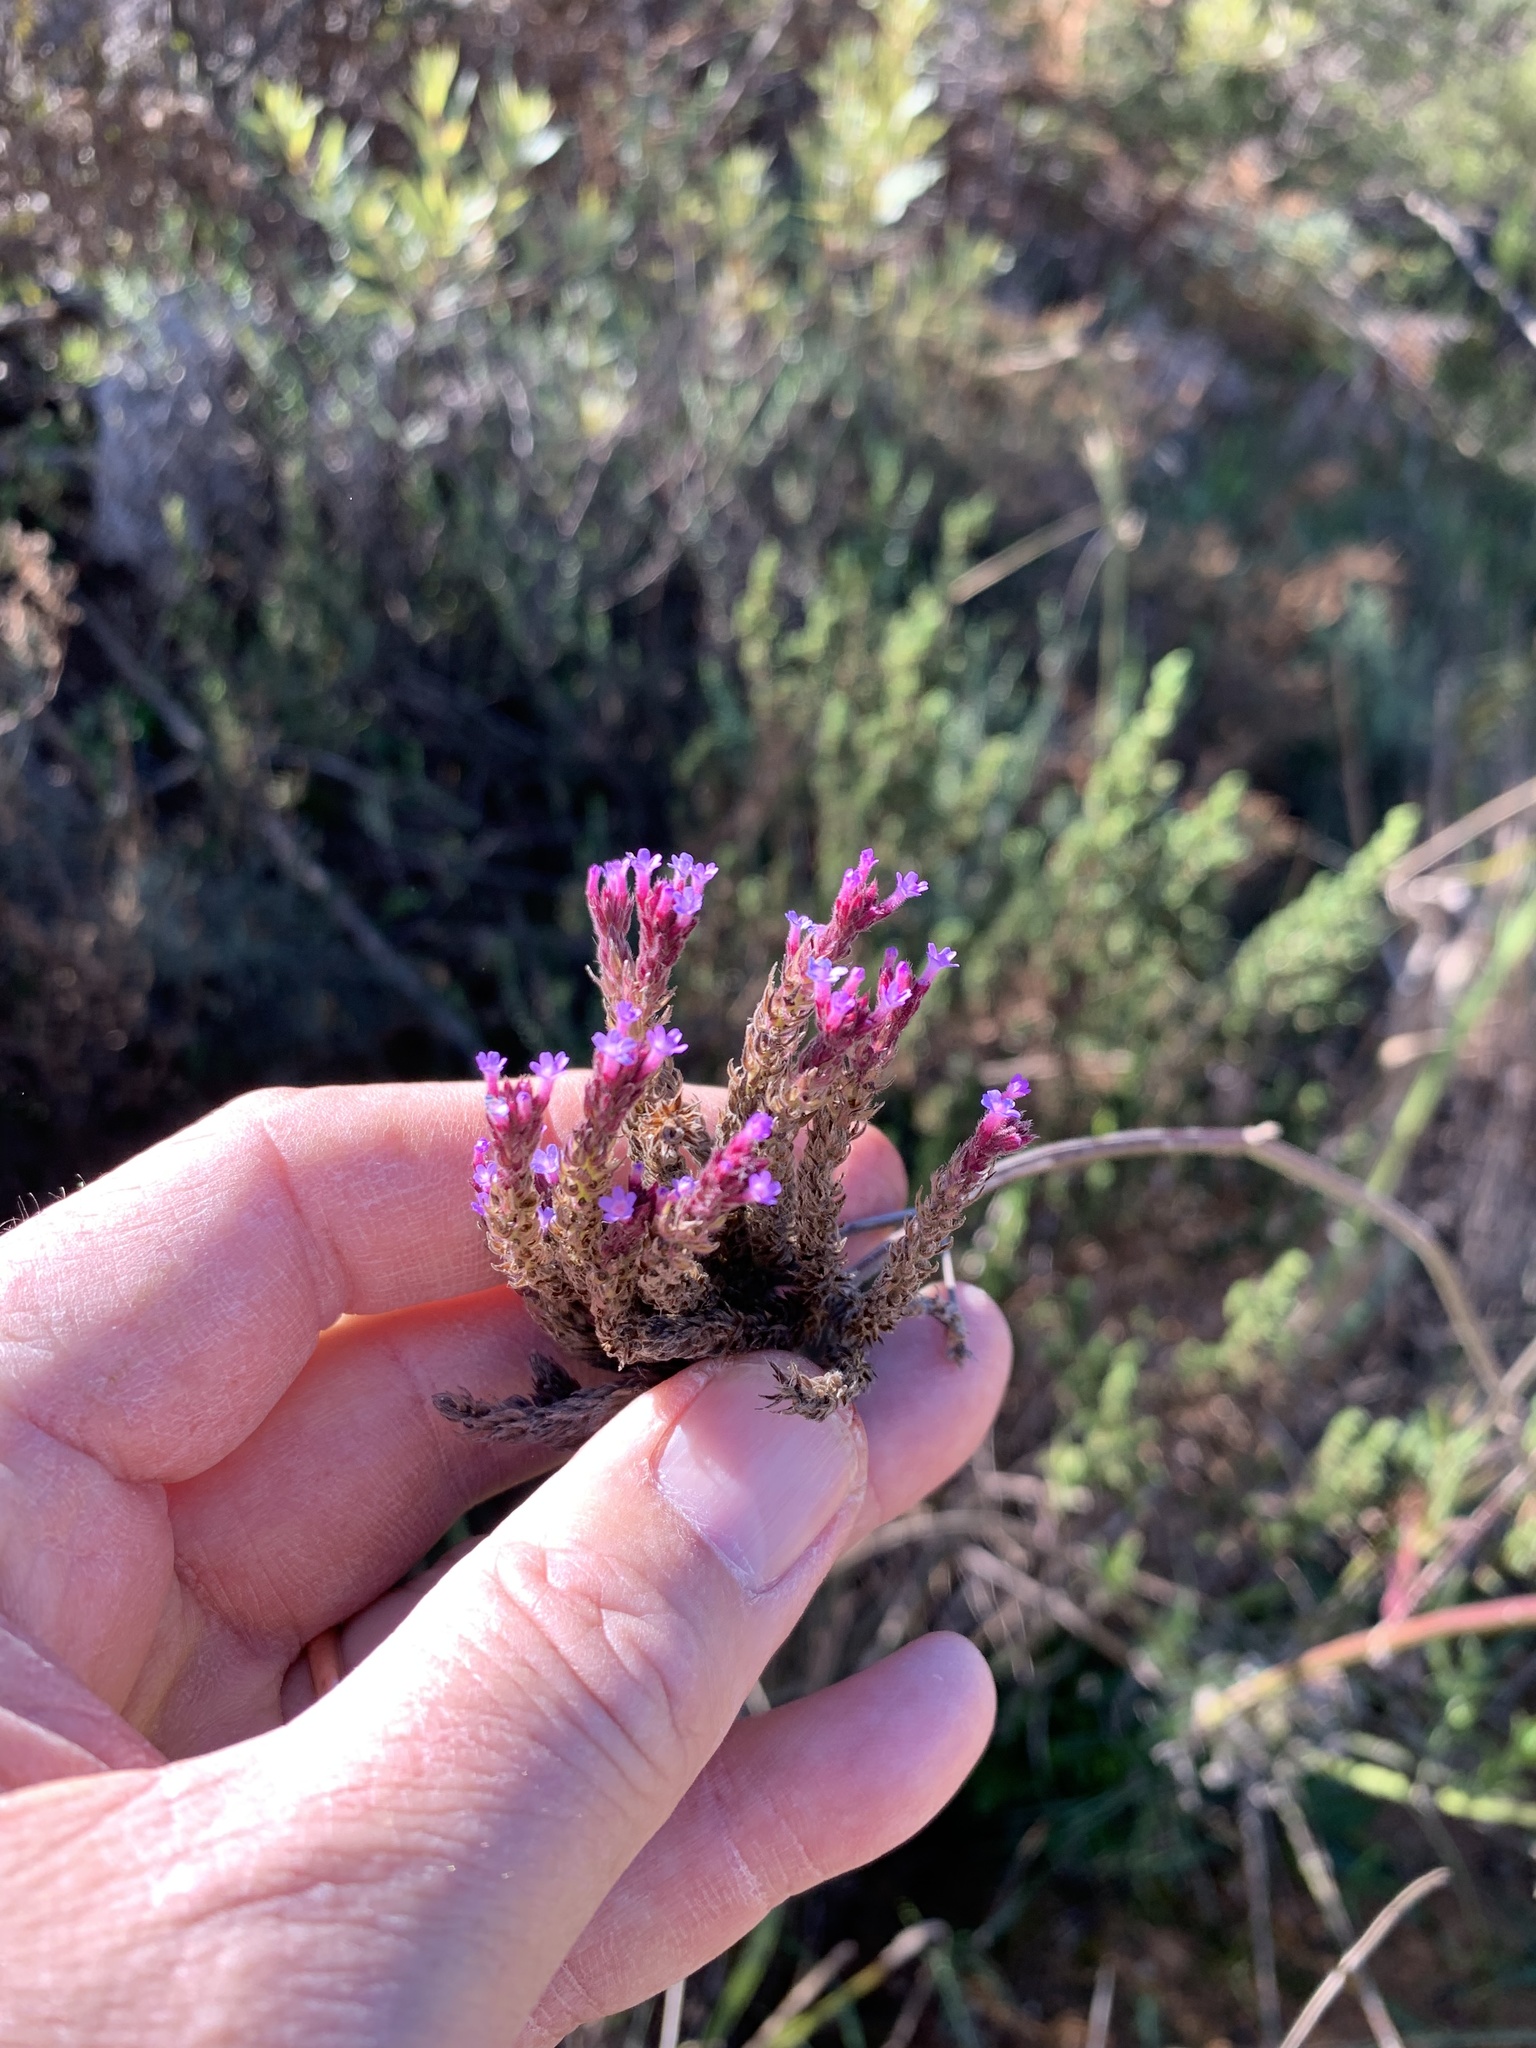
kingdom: Plantae
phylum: Tracheophyta
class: Magnoliopsida
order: Lamiales
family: Verbenaceae
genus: Verbena
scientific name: Verbena bonariensis
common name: Purpletop vervain
